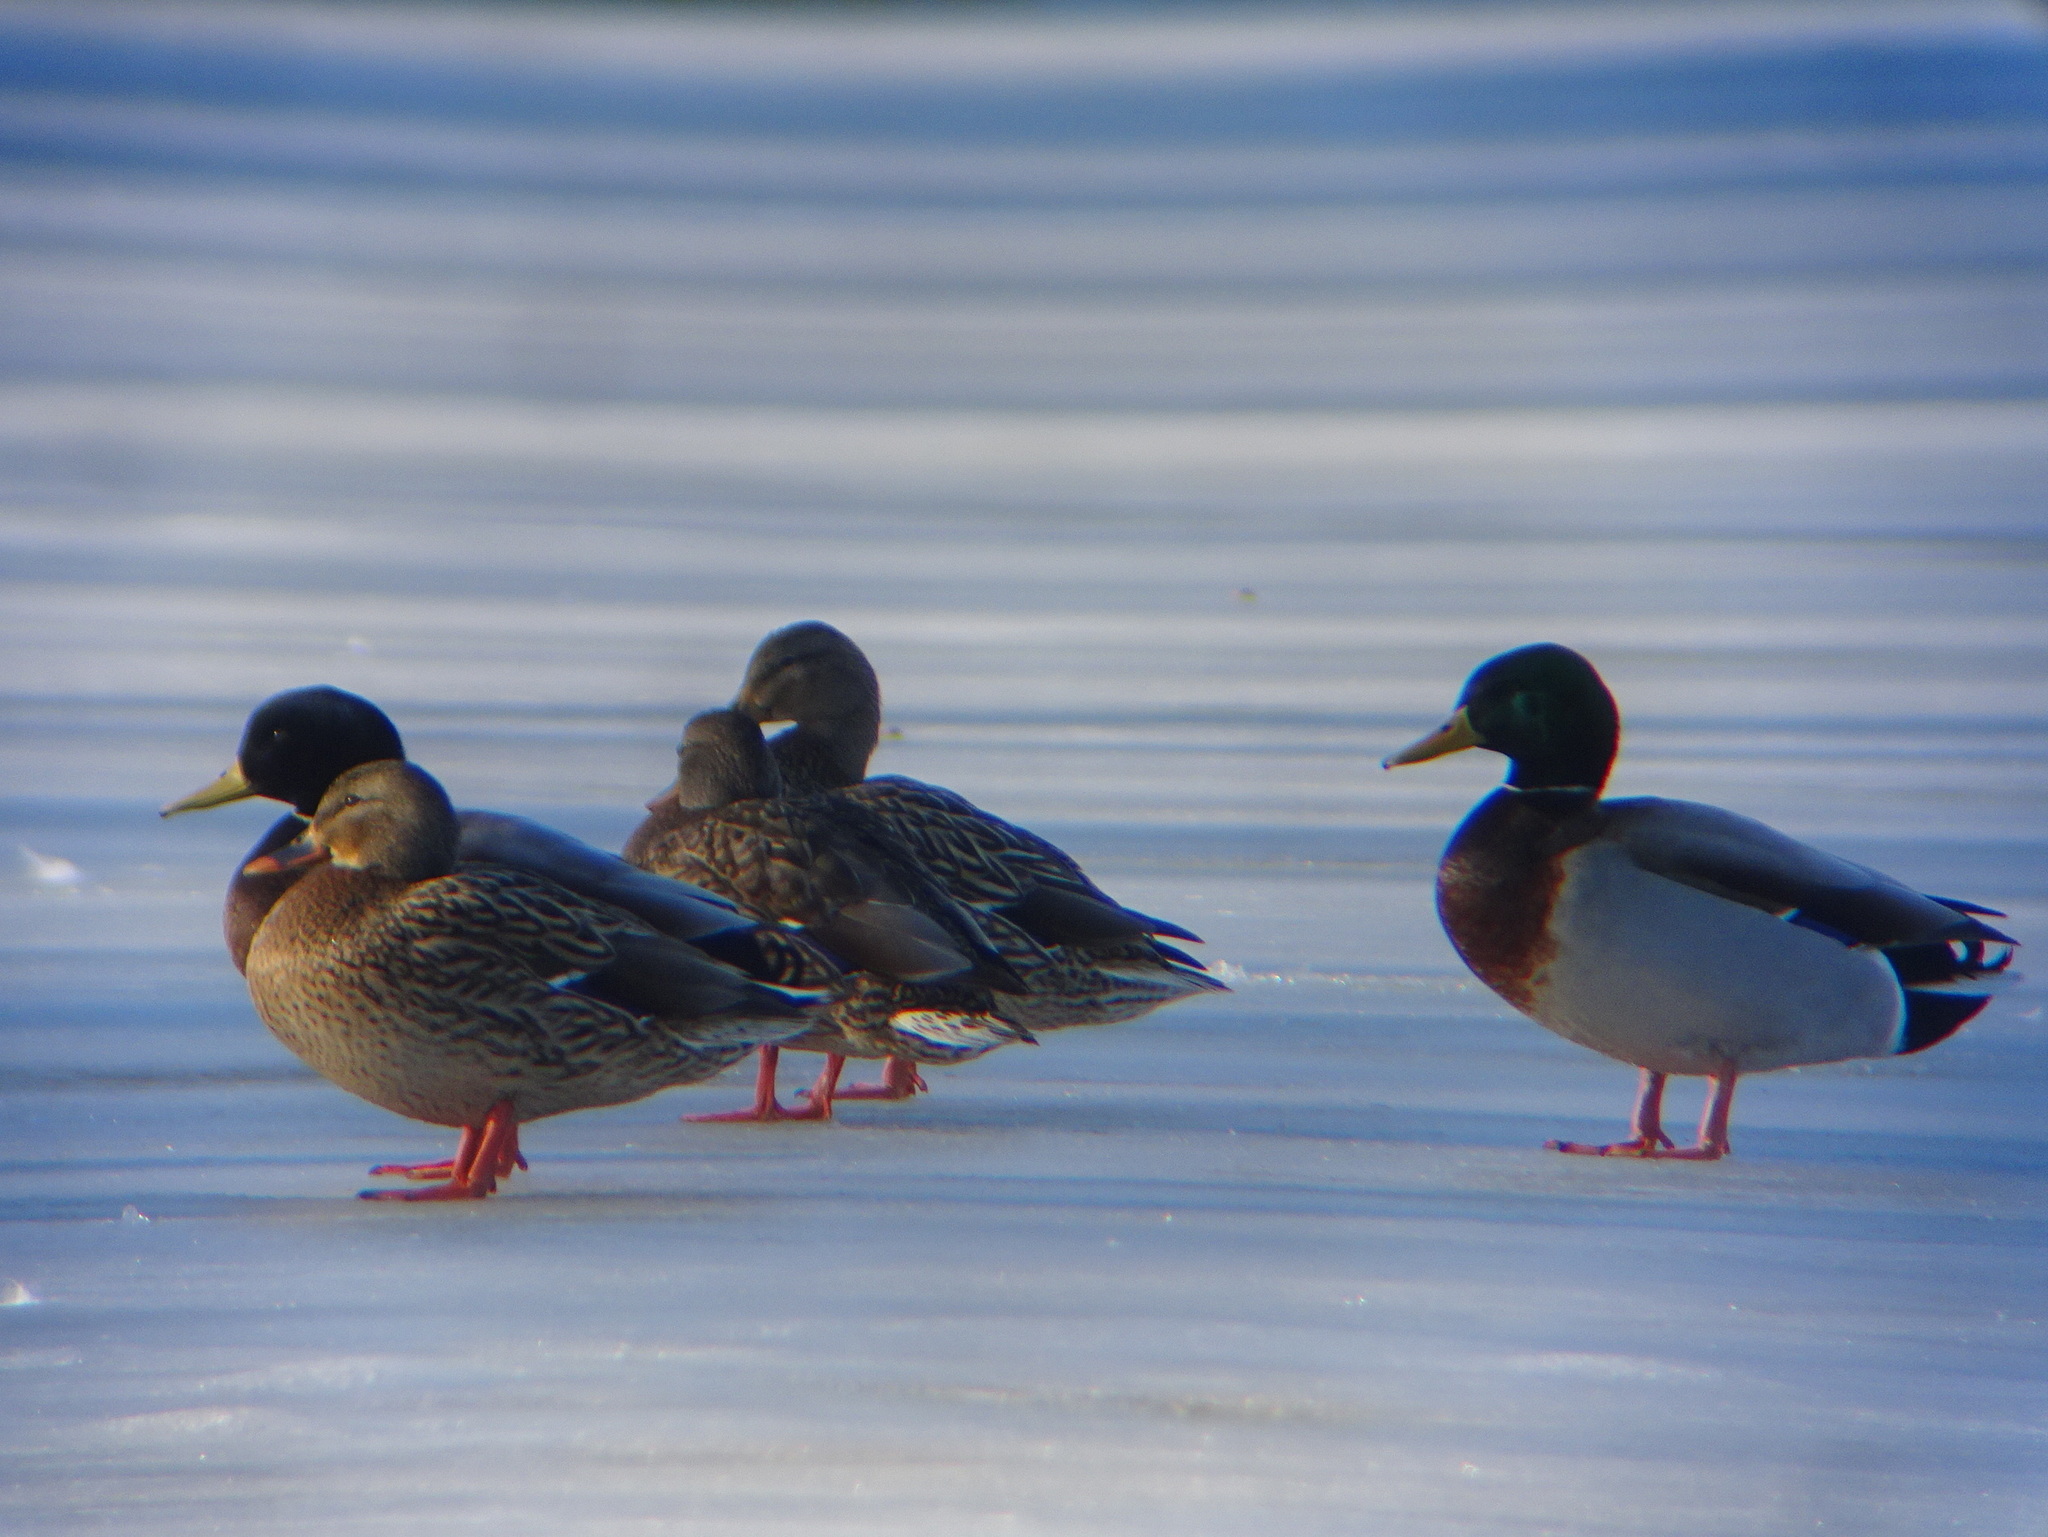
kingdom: Animalia
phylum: Chordata
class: Aves
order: Anseriformes
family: Anatidae
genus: Anas
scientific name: Anas platyrhynchos
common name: Mallard
